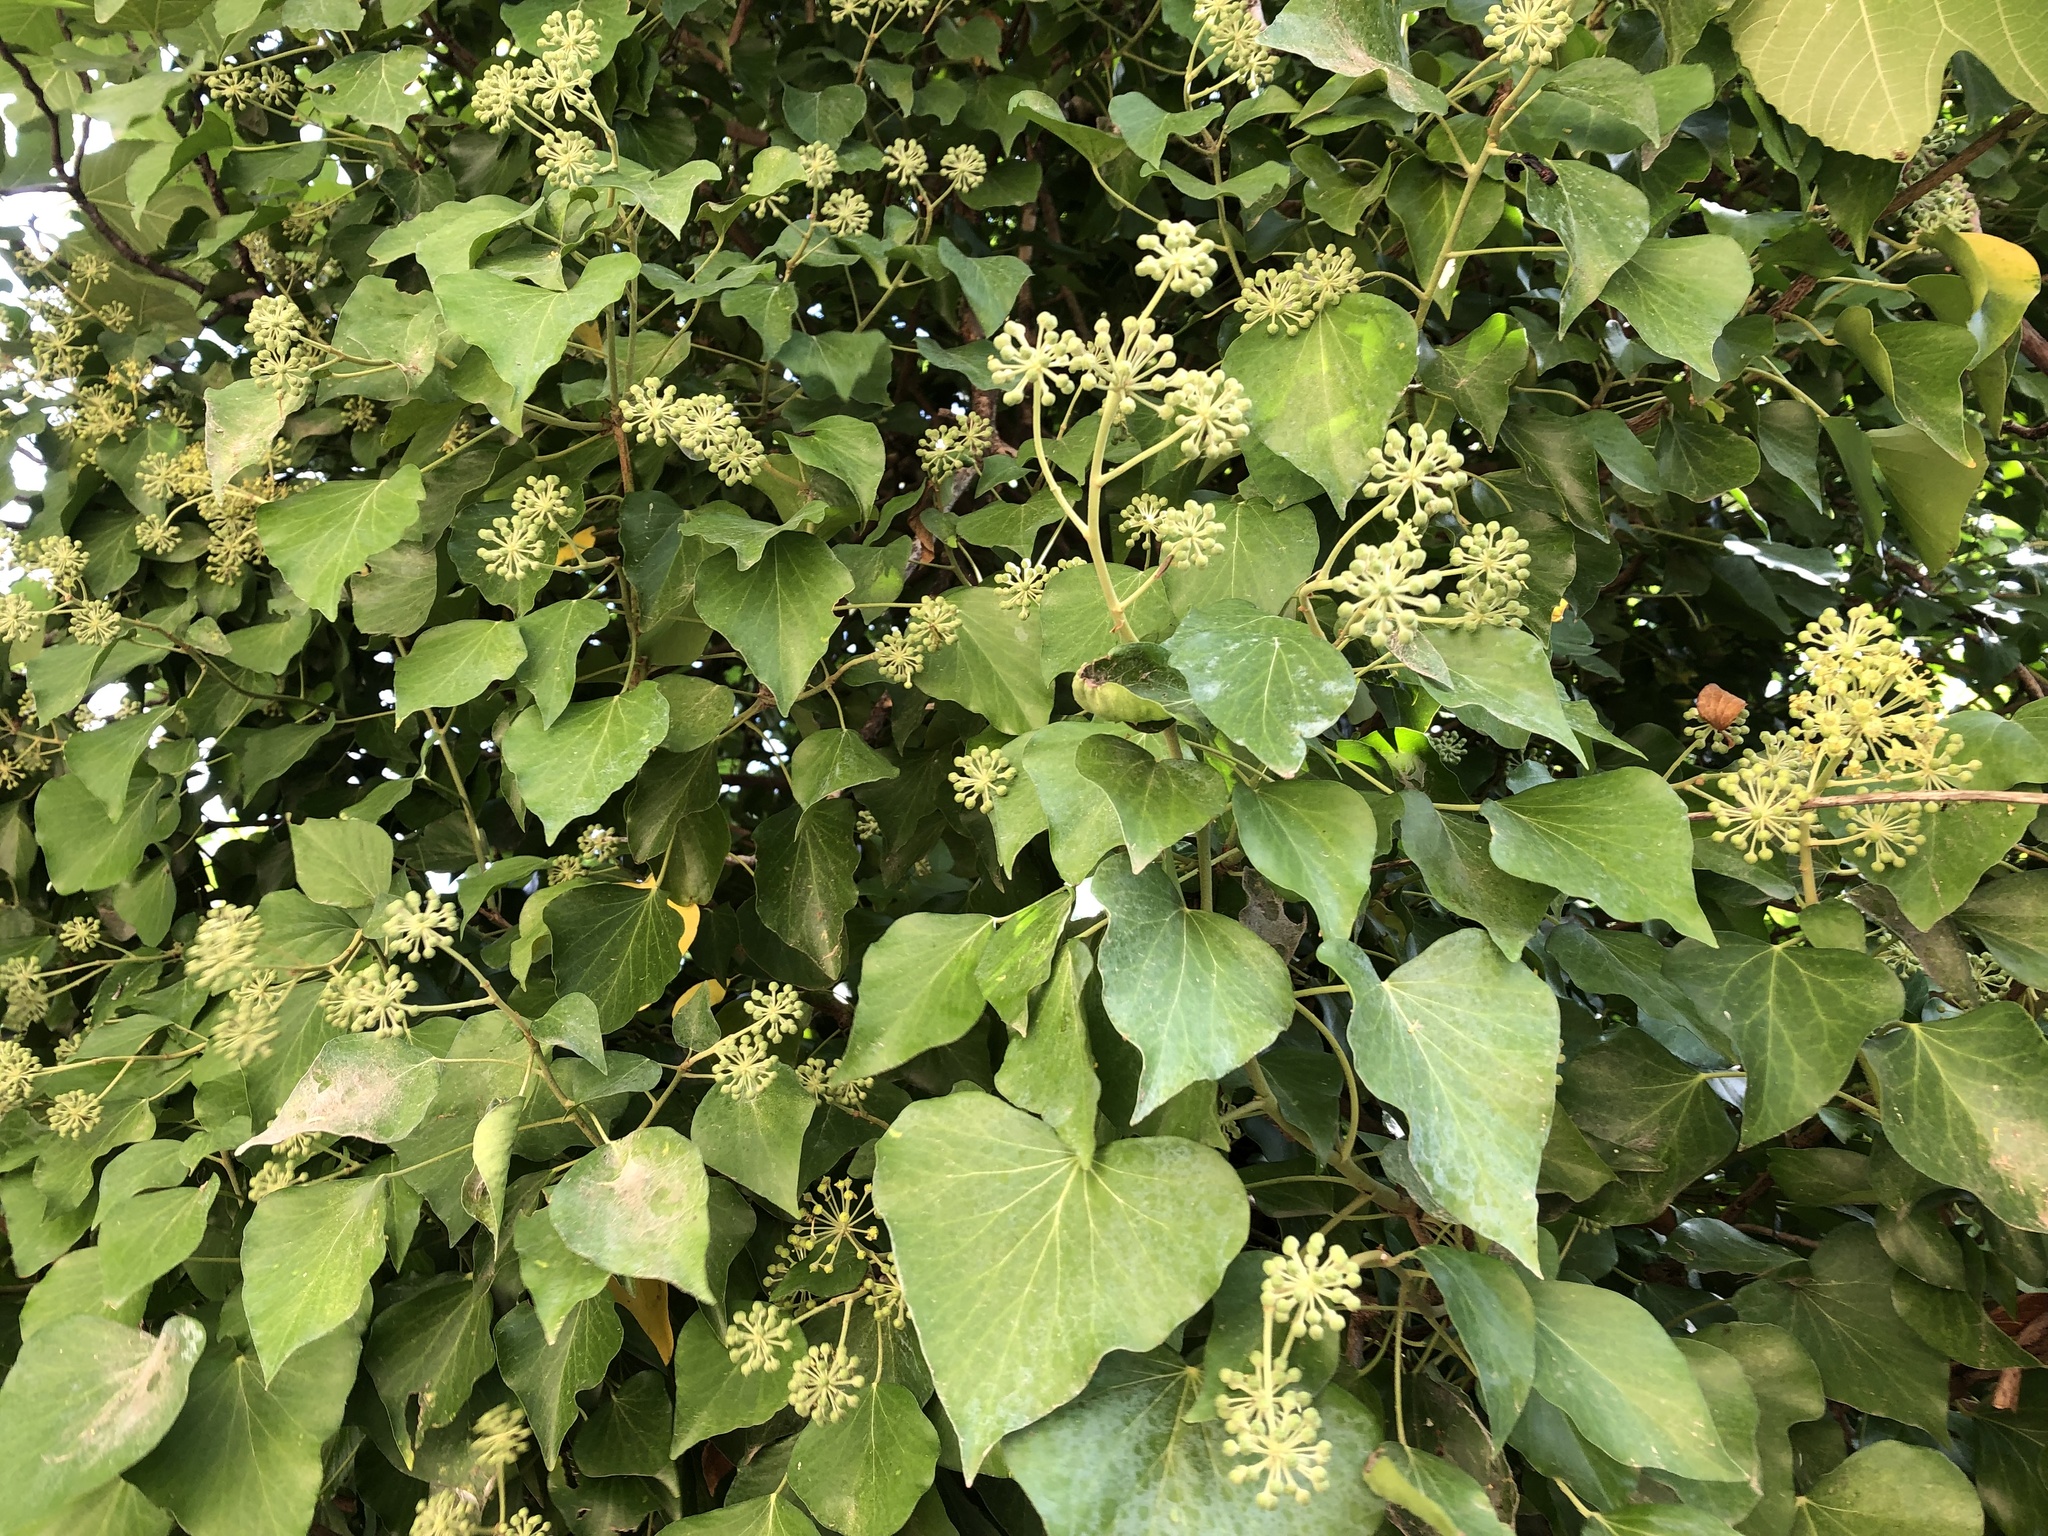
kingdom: Plantae
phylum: Tracheophyta
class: Magnoliopsida
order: Apiales
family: Araliaceae
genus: Hedera
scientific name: Hedera helix
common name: Ivy
